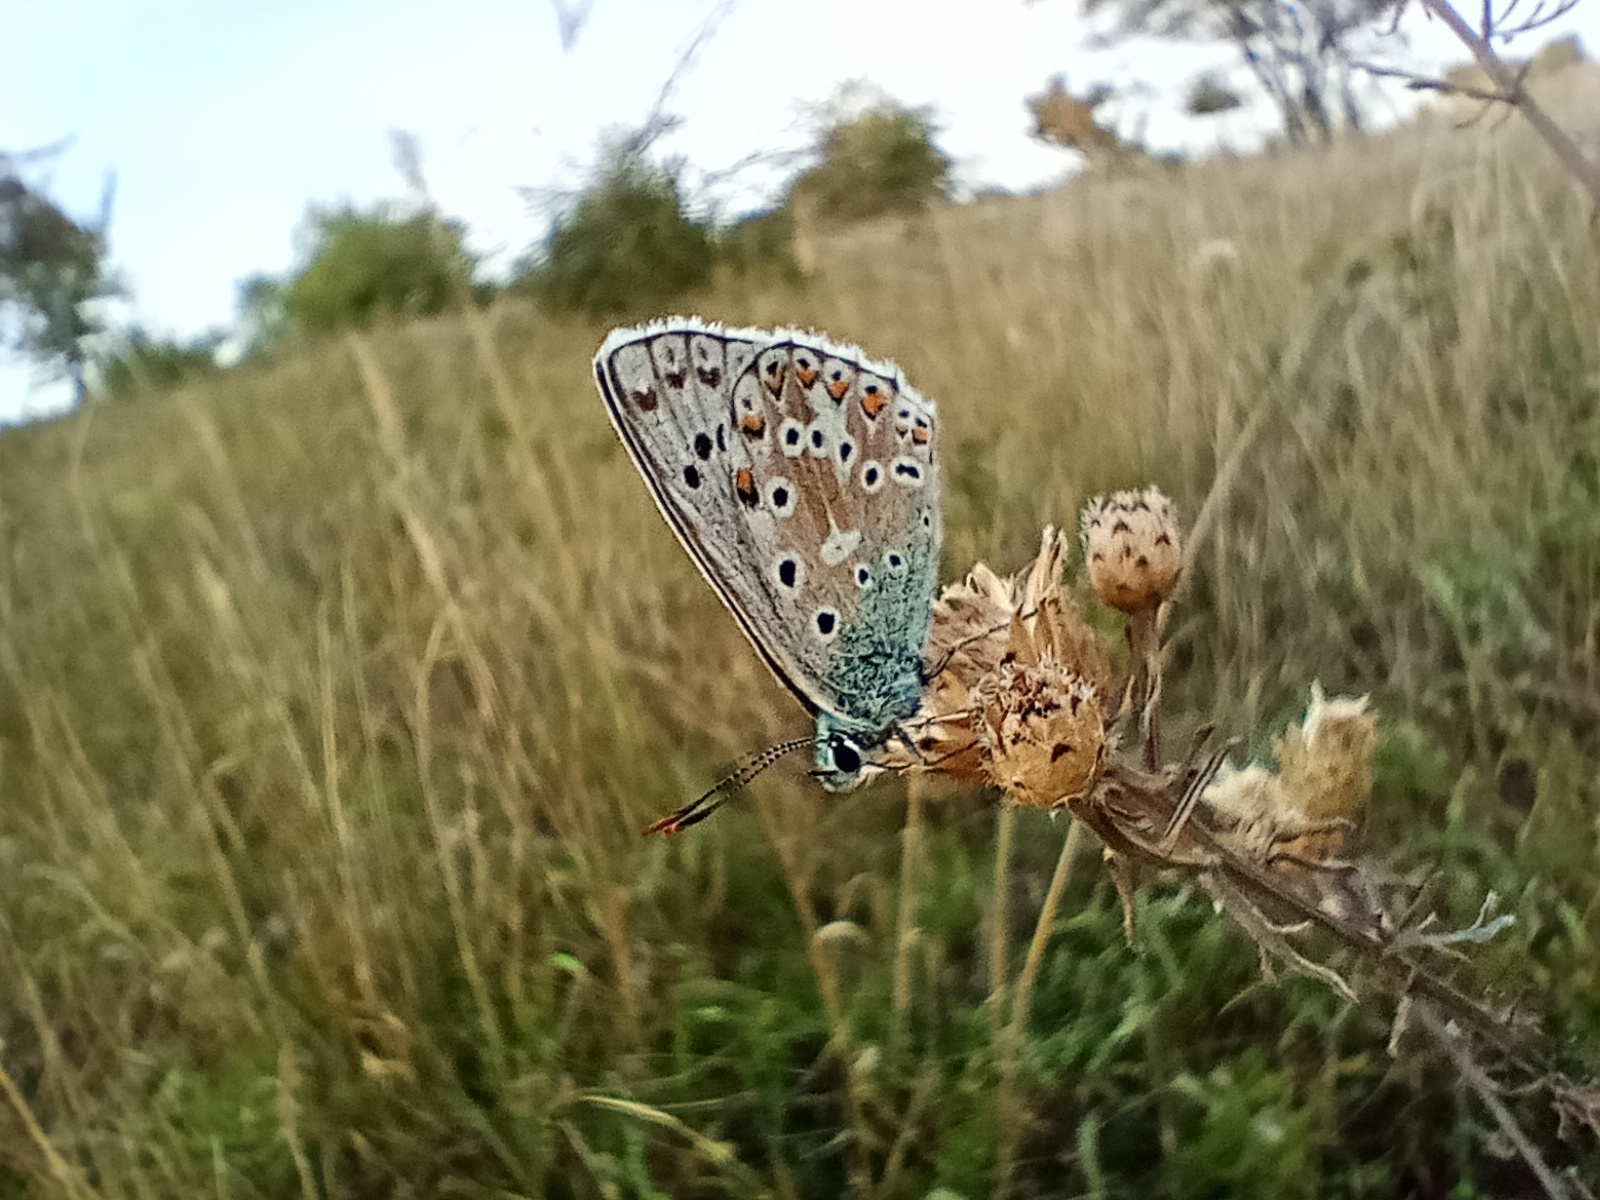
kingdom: Animalia
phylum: Arthropoda
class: Insecta
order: Lepidoptera
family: Lycaenidae
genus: Lysandra
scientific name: Lysandra coridon
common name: Chalkhill blue
